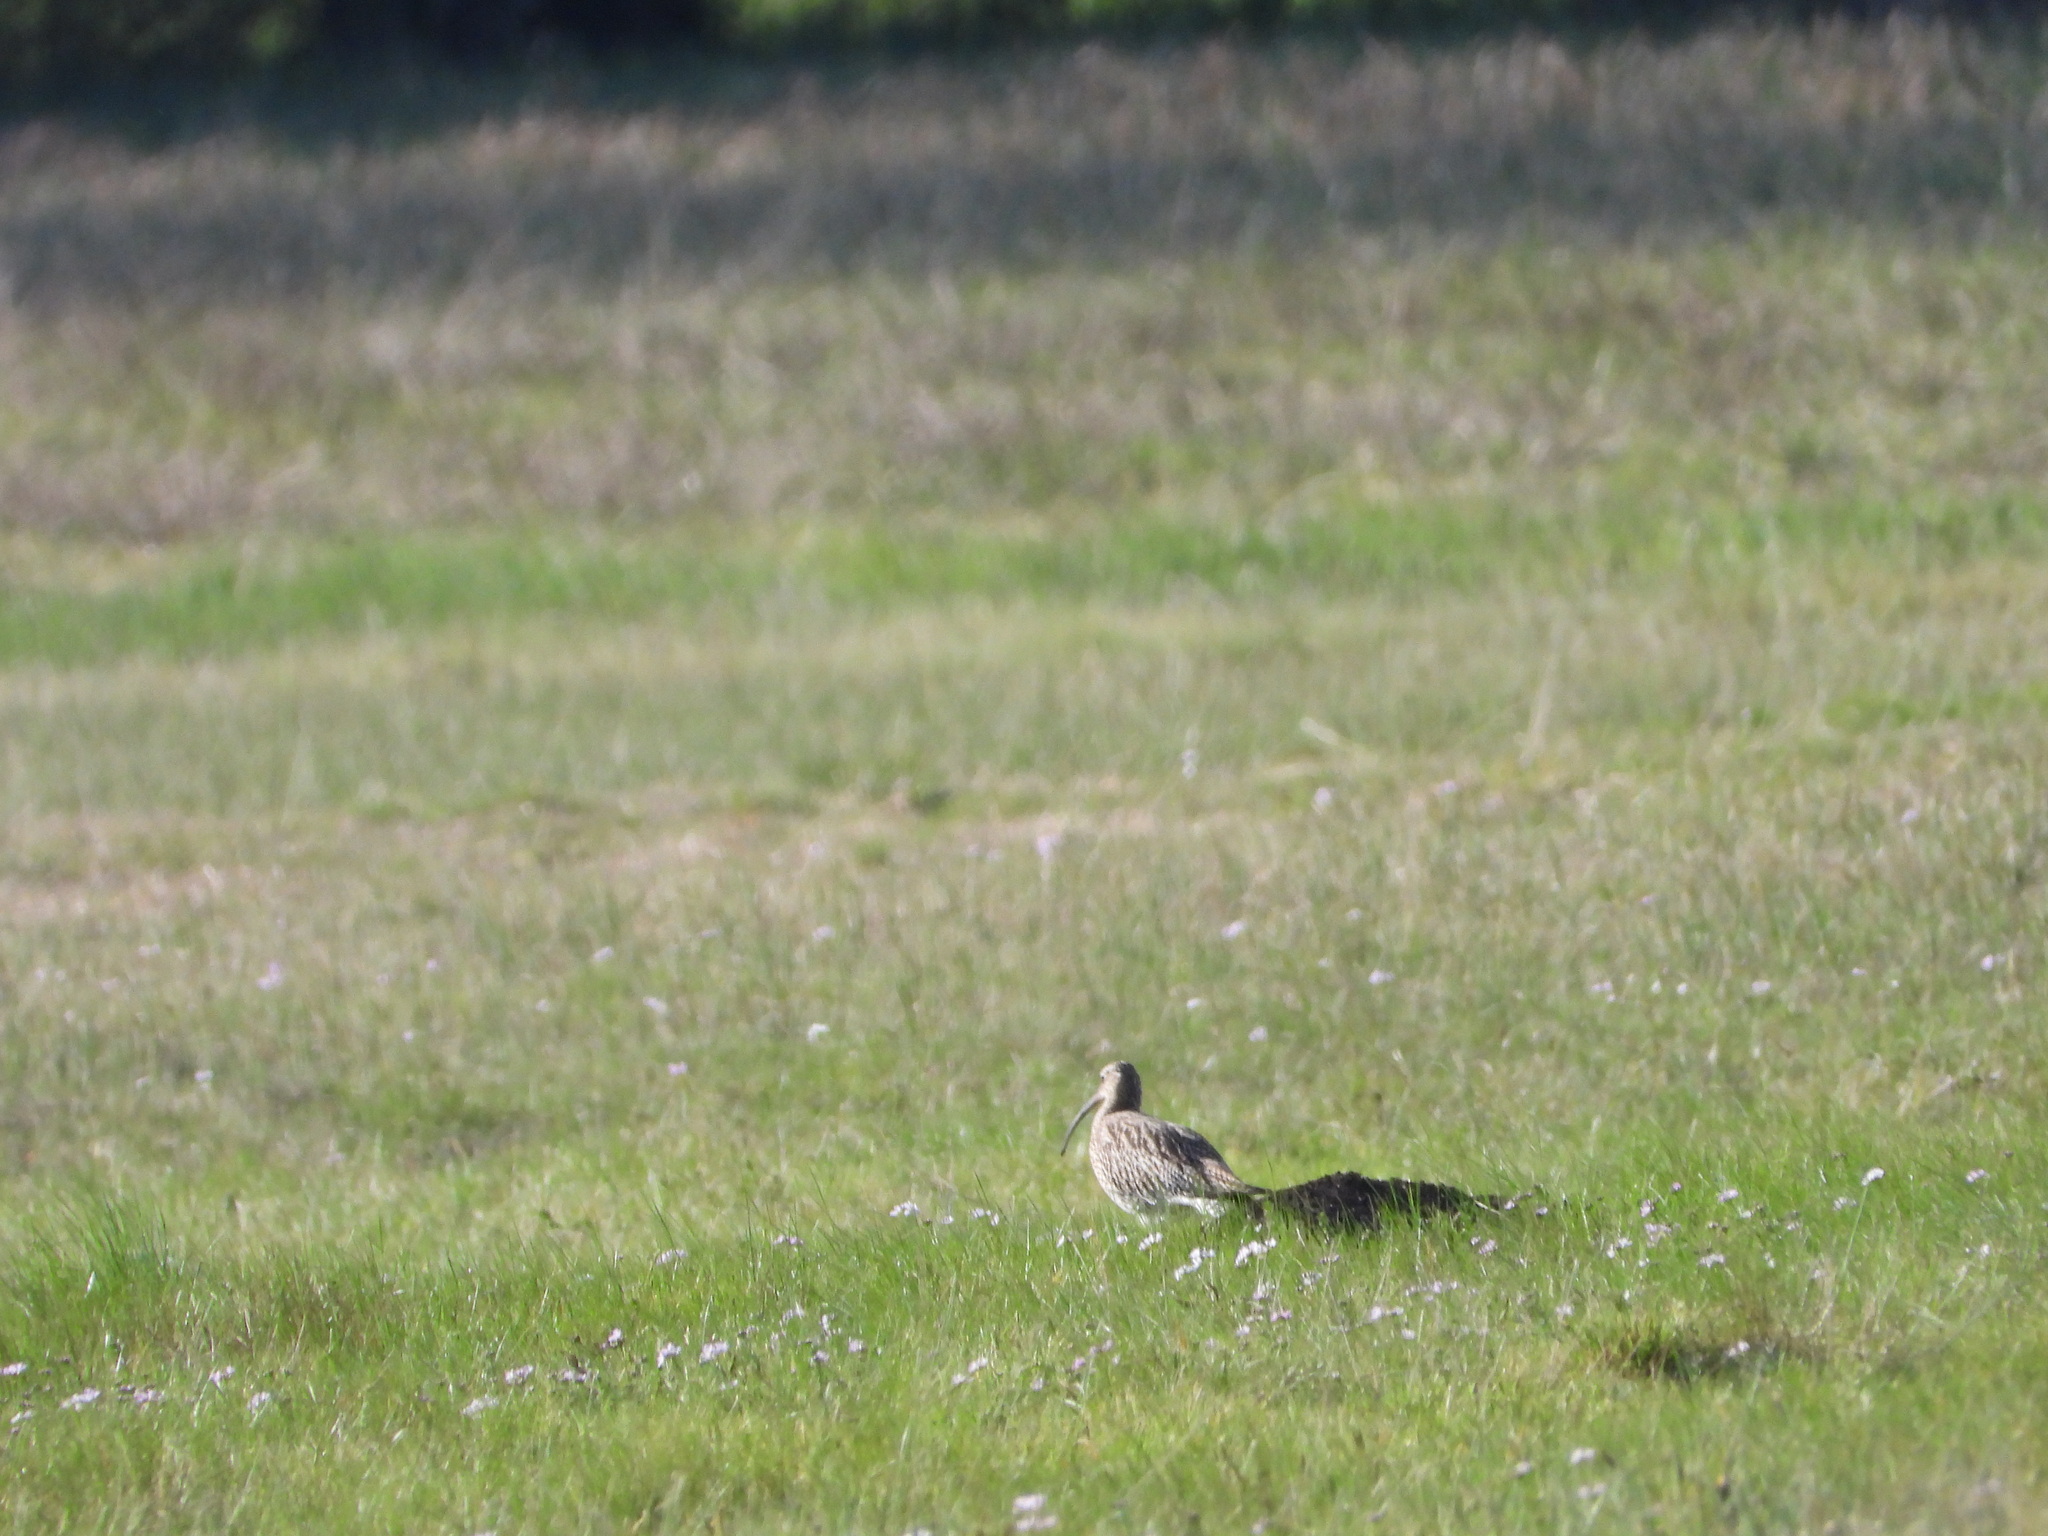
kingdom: Animalia
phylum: Chordata
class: Aves
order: Charadriiformes
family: Scolopacidae
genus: Numenius
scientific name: Numenius arquata
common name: Eurasian curlew
